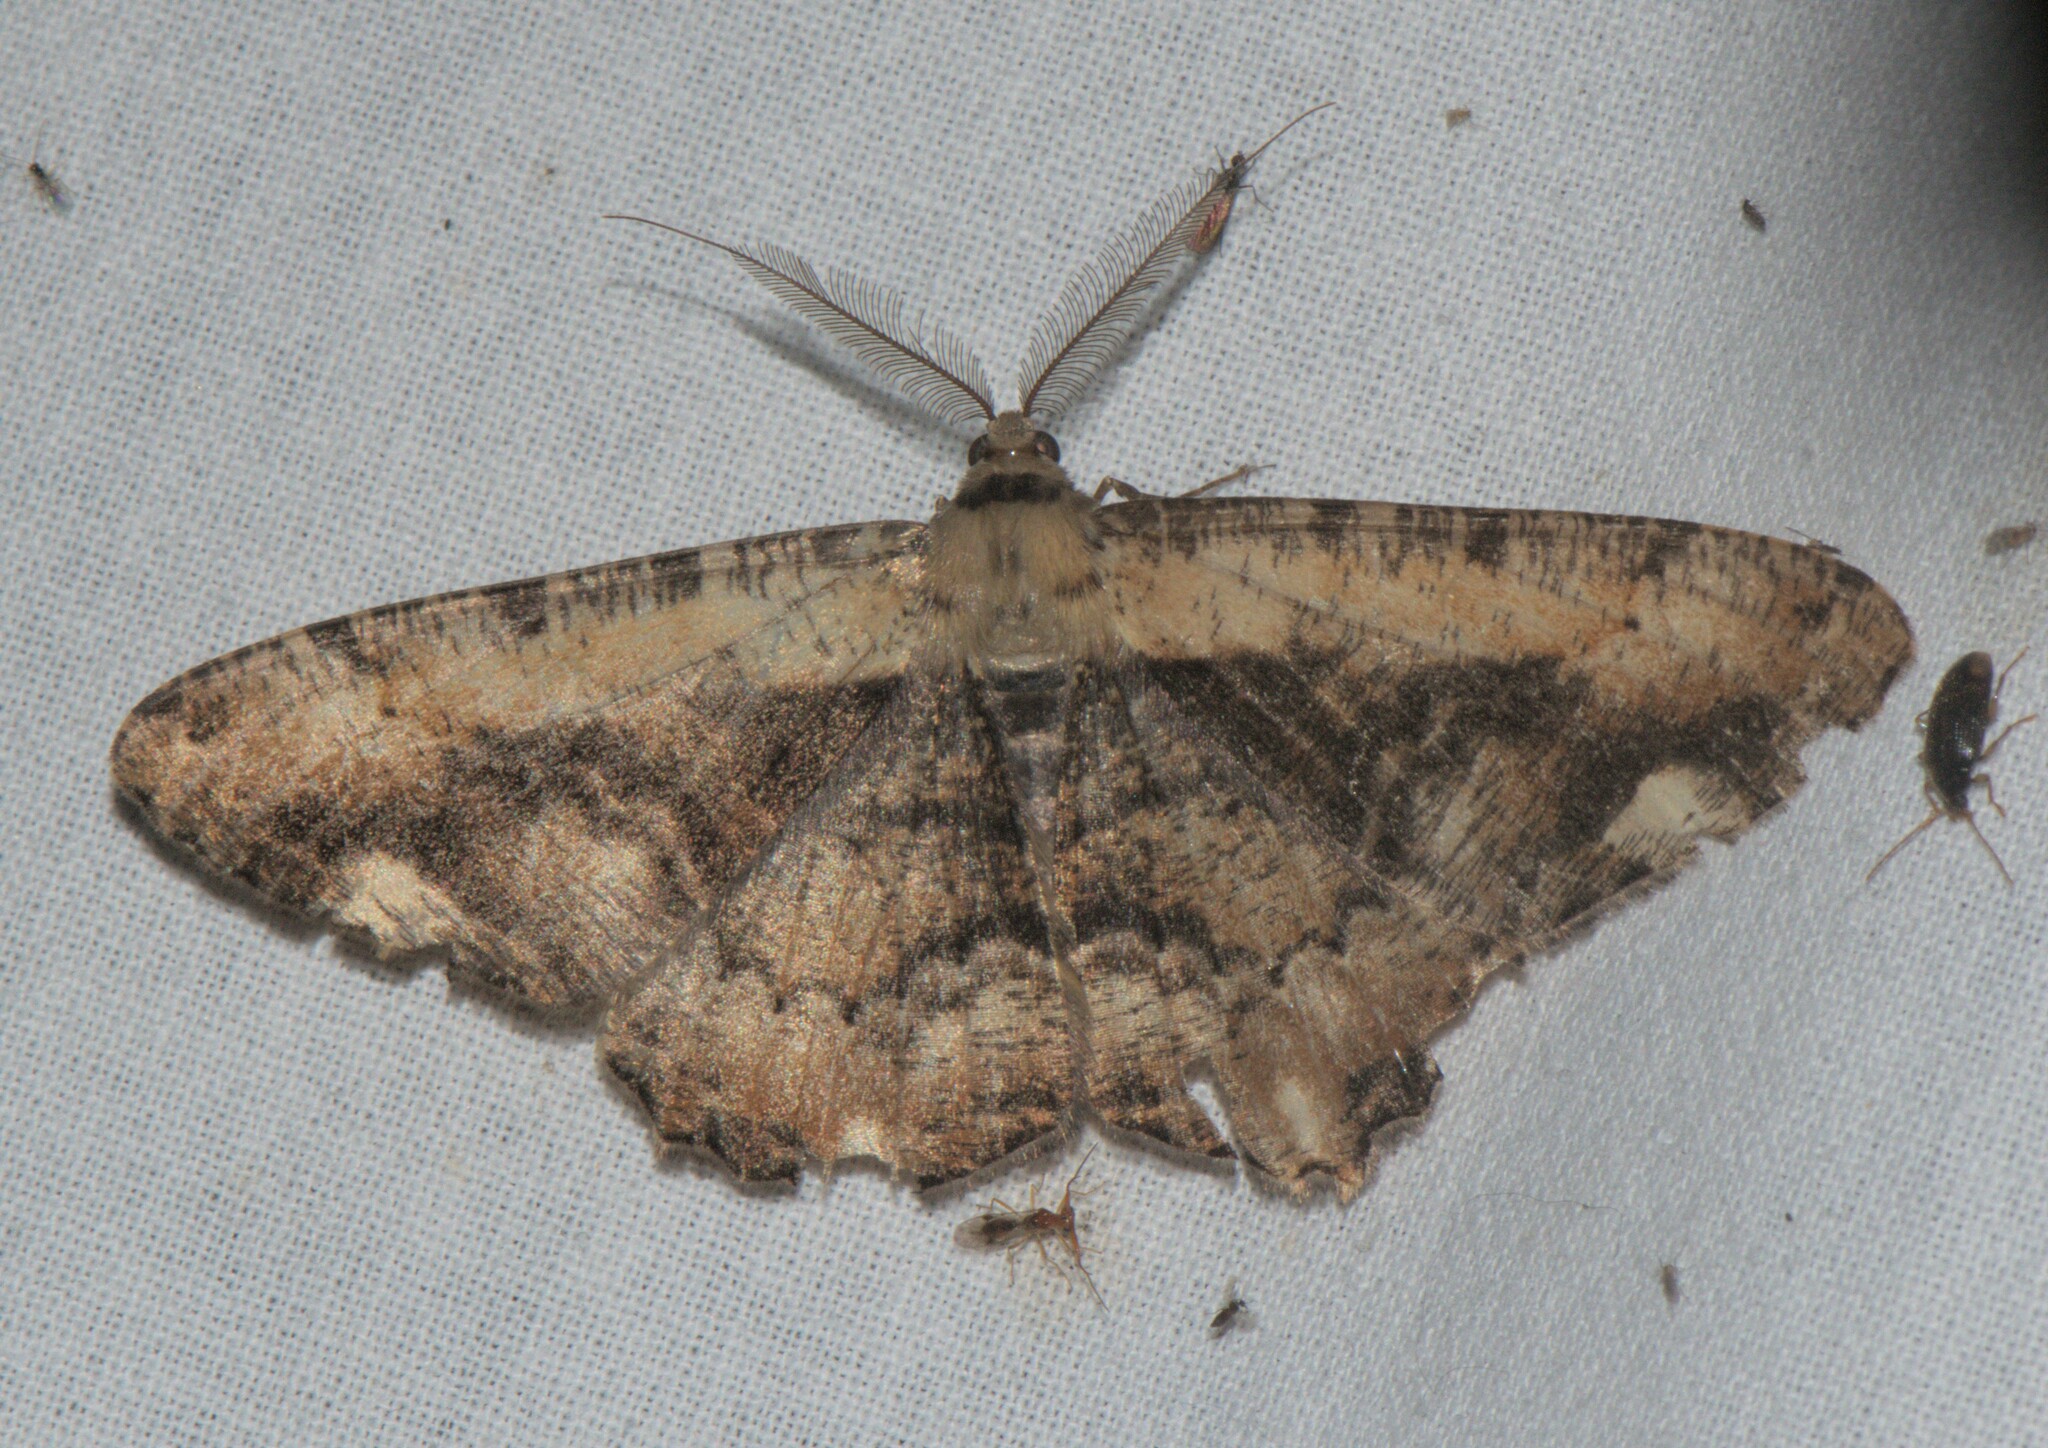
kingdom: Animalia
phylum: Arthropoda
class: Insecta
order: Lepidoptera
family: Geometridae
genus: Lassaba
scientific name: Lassaba interruptaria
